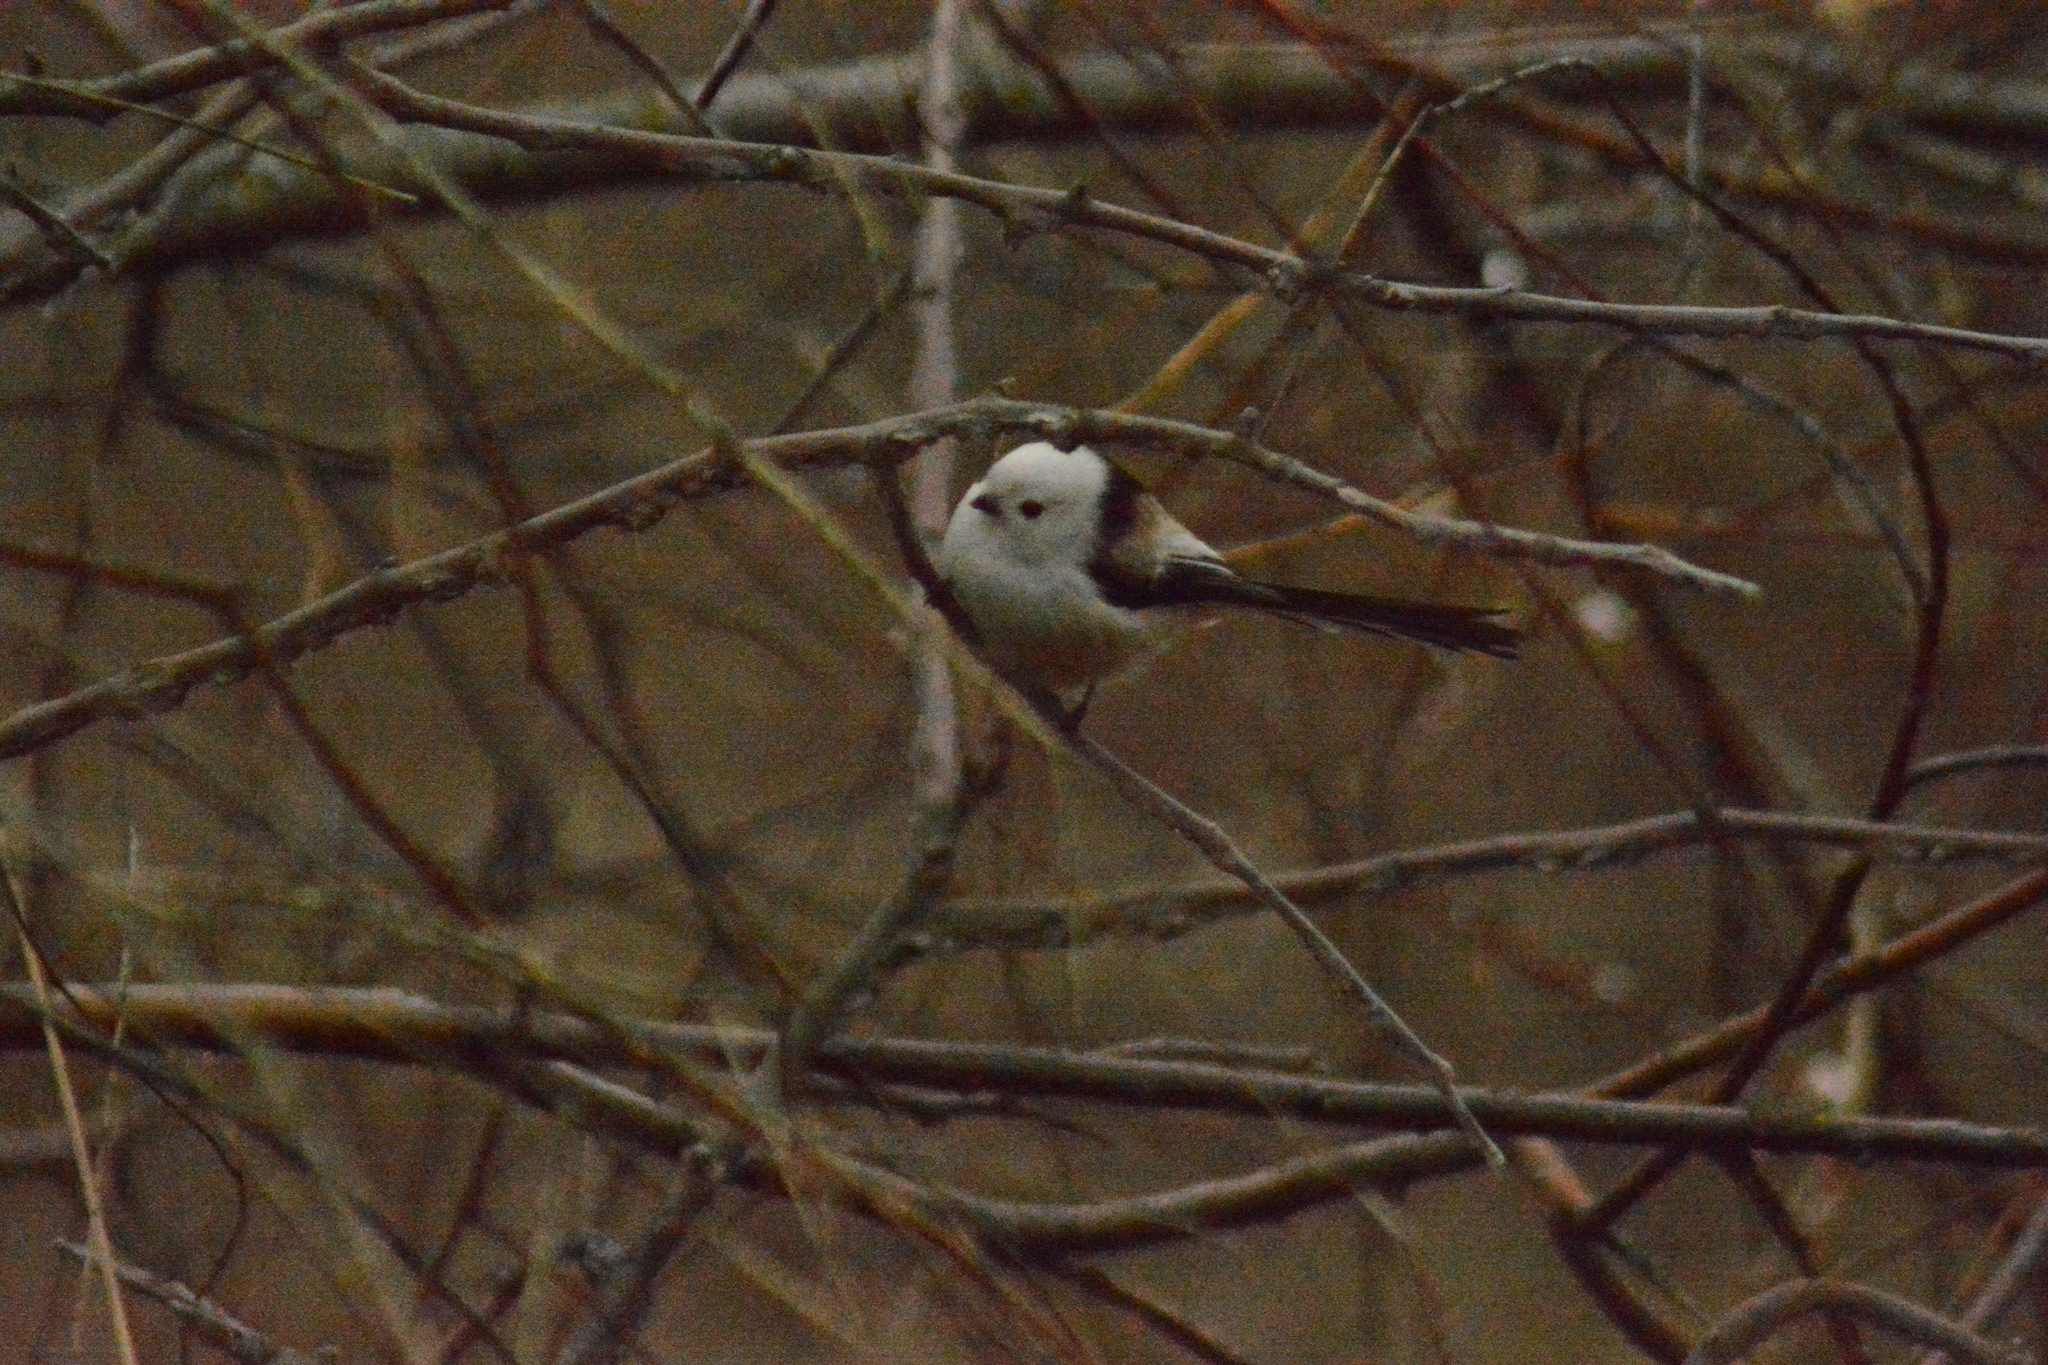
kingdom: Animalia
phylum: Chordata
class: Aves
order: Passeriformes
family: Aegithalidae
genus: Aegithalos
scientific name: Aegithalos caudatus
